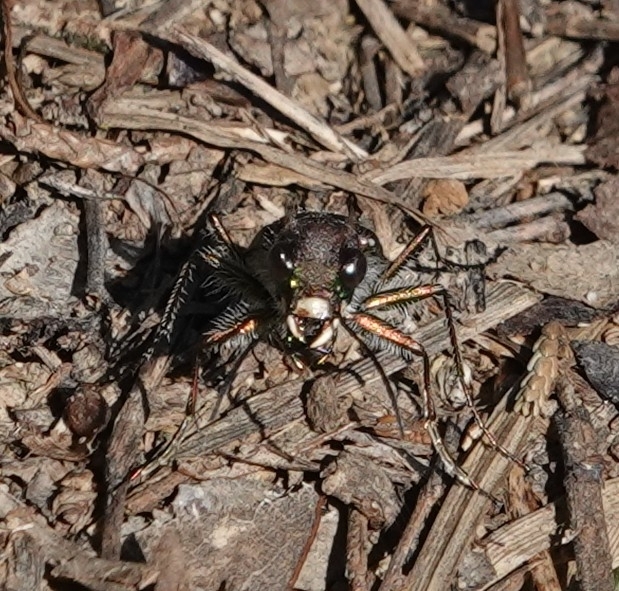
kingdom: Animalia
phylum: Arthropoda
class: Insecta
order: Coleoptera
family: Carabidae
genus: Cicindela
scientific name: Cicindela purpurea
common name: Cow path tiger beetle
